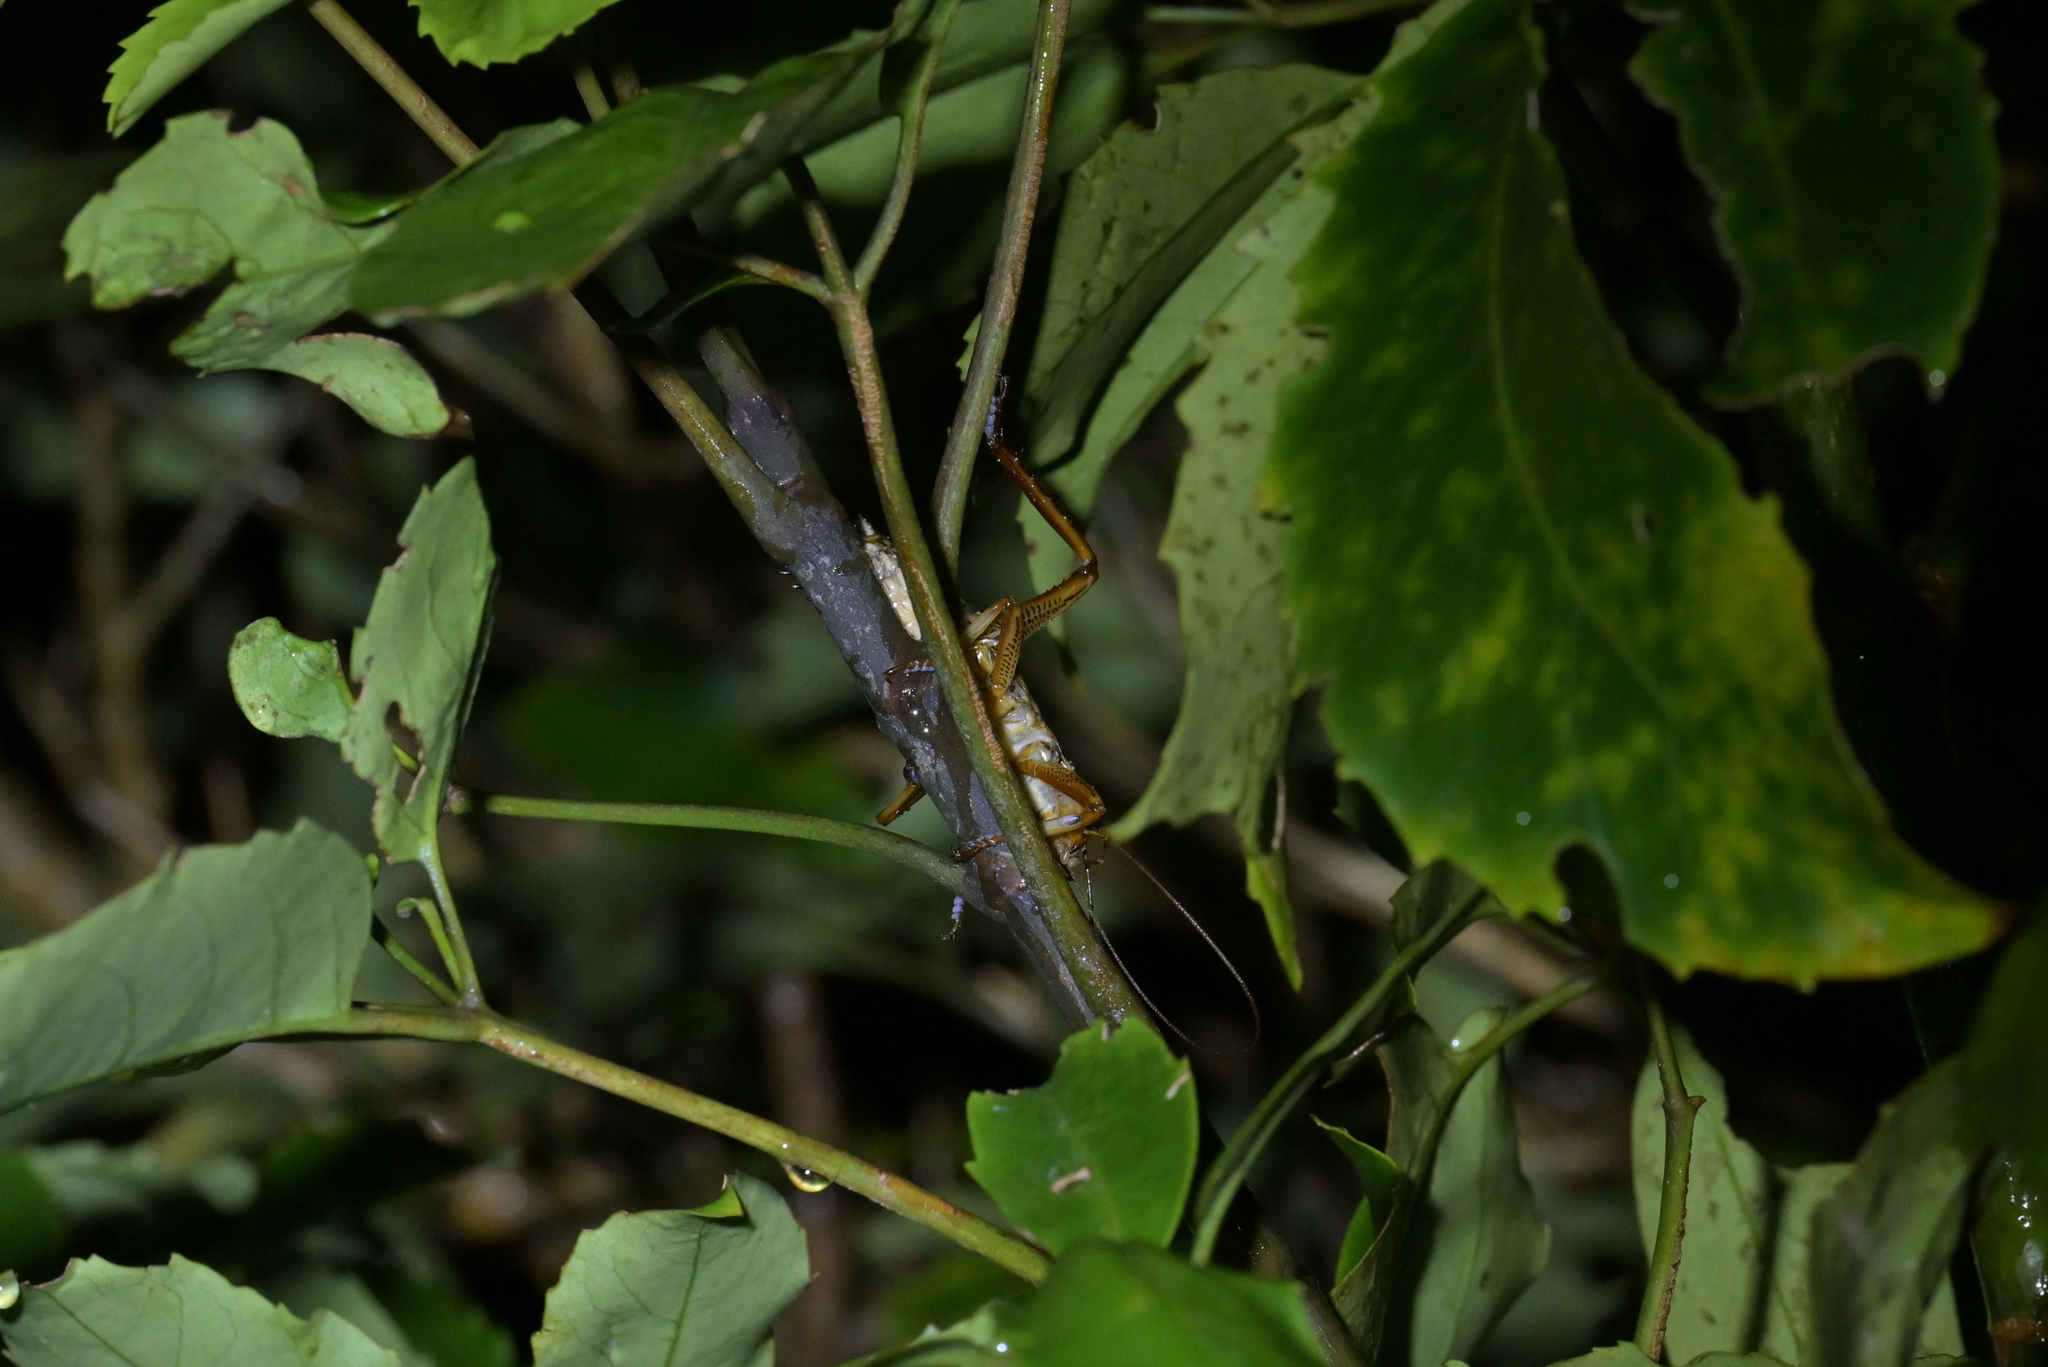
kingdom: Animalia
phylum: Arthropoda
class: Insecta
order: Orthoptera
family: Anostostomatidae
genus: Hemideina
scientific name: Hemideina crassidens
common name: Wellington tree weta
